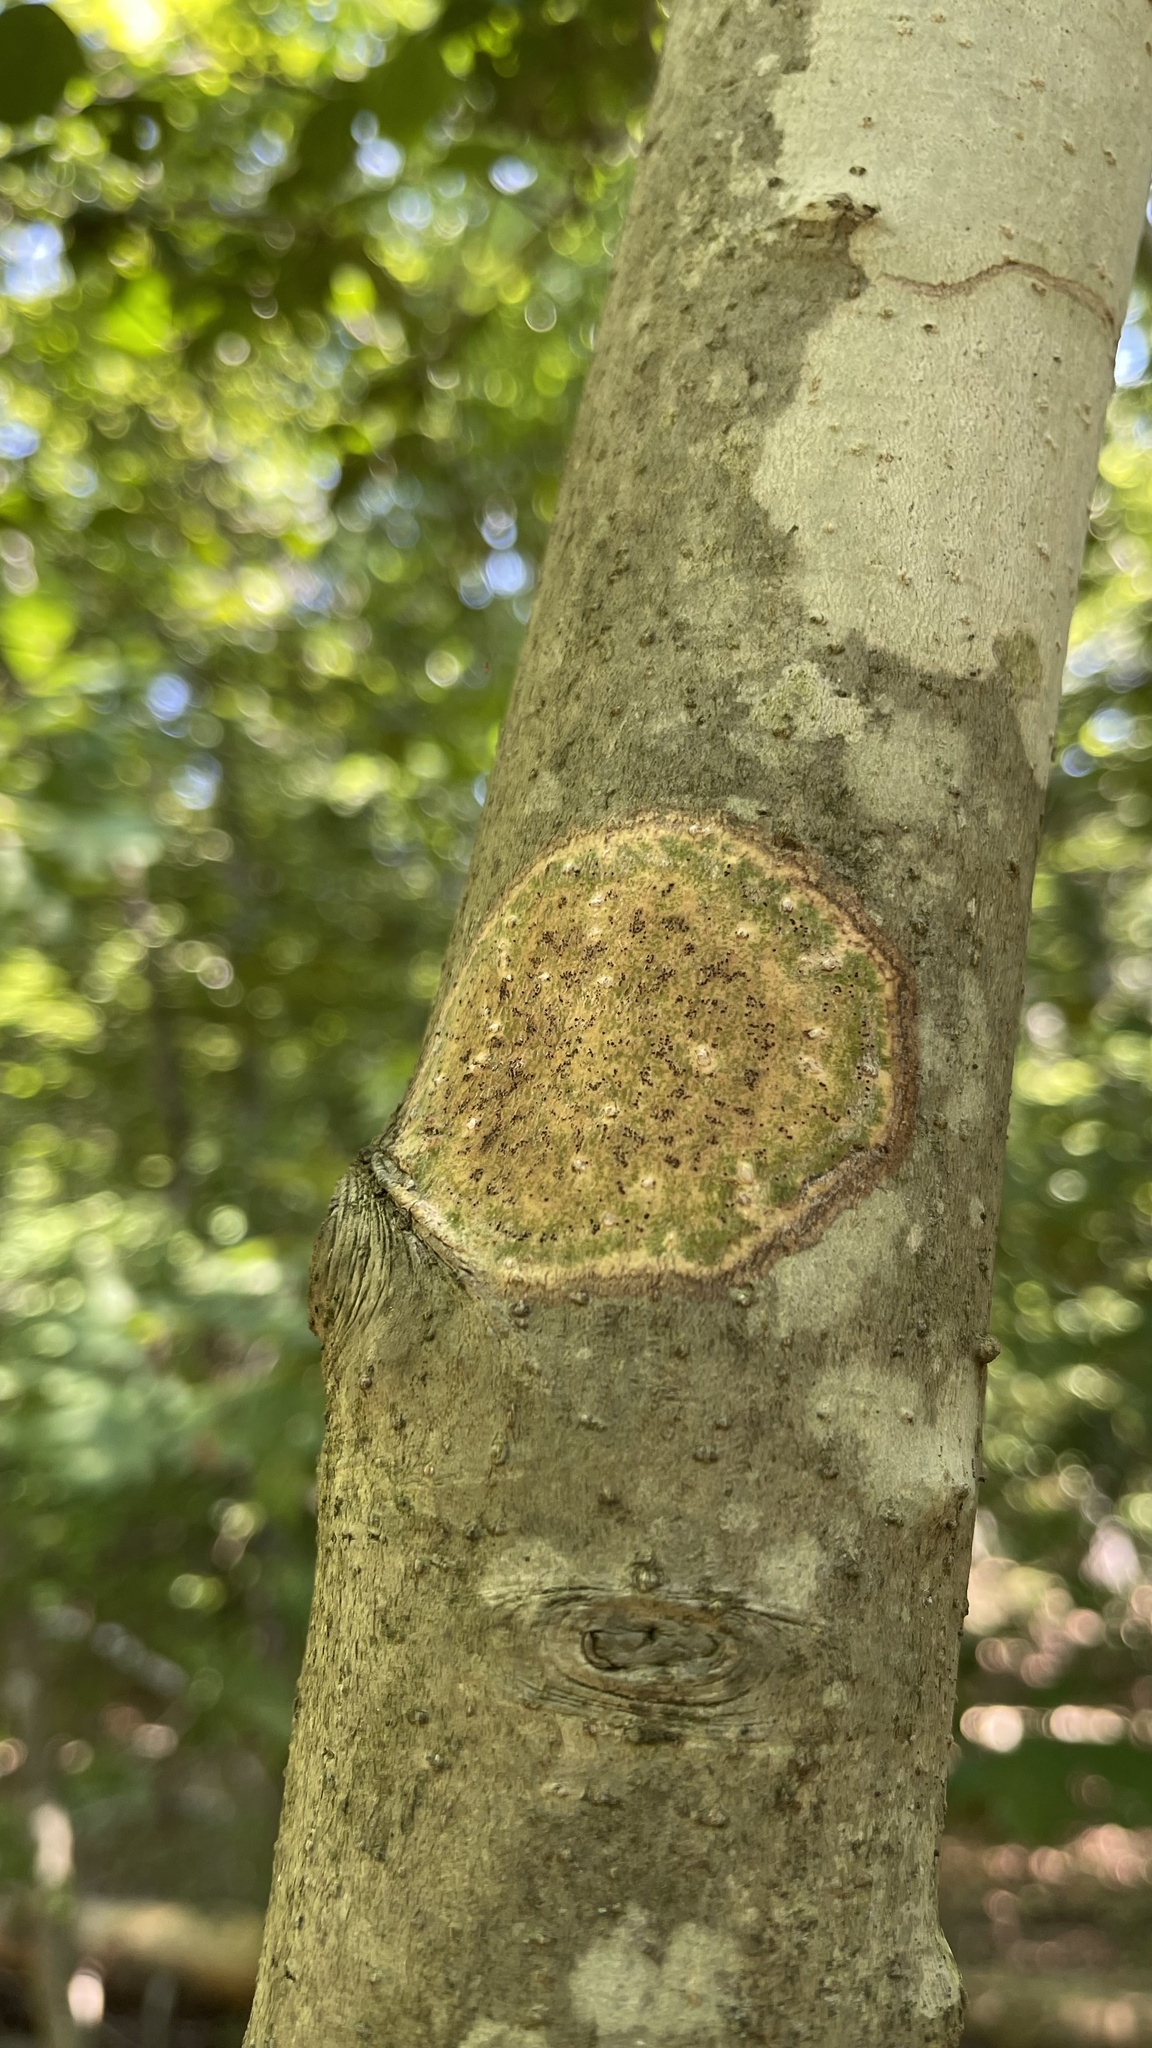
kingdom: Fungi
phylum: Ascomycota
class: Dothideomycetes
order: Trypetheliales
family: Trypetheliaceae
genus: Viridothelium
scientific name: Viridothelium virens
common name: Speckled blister lichen
